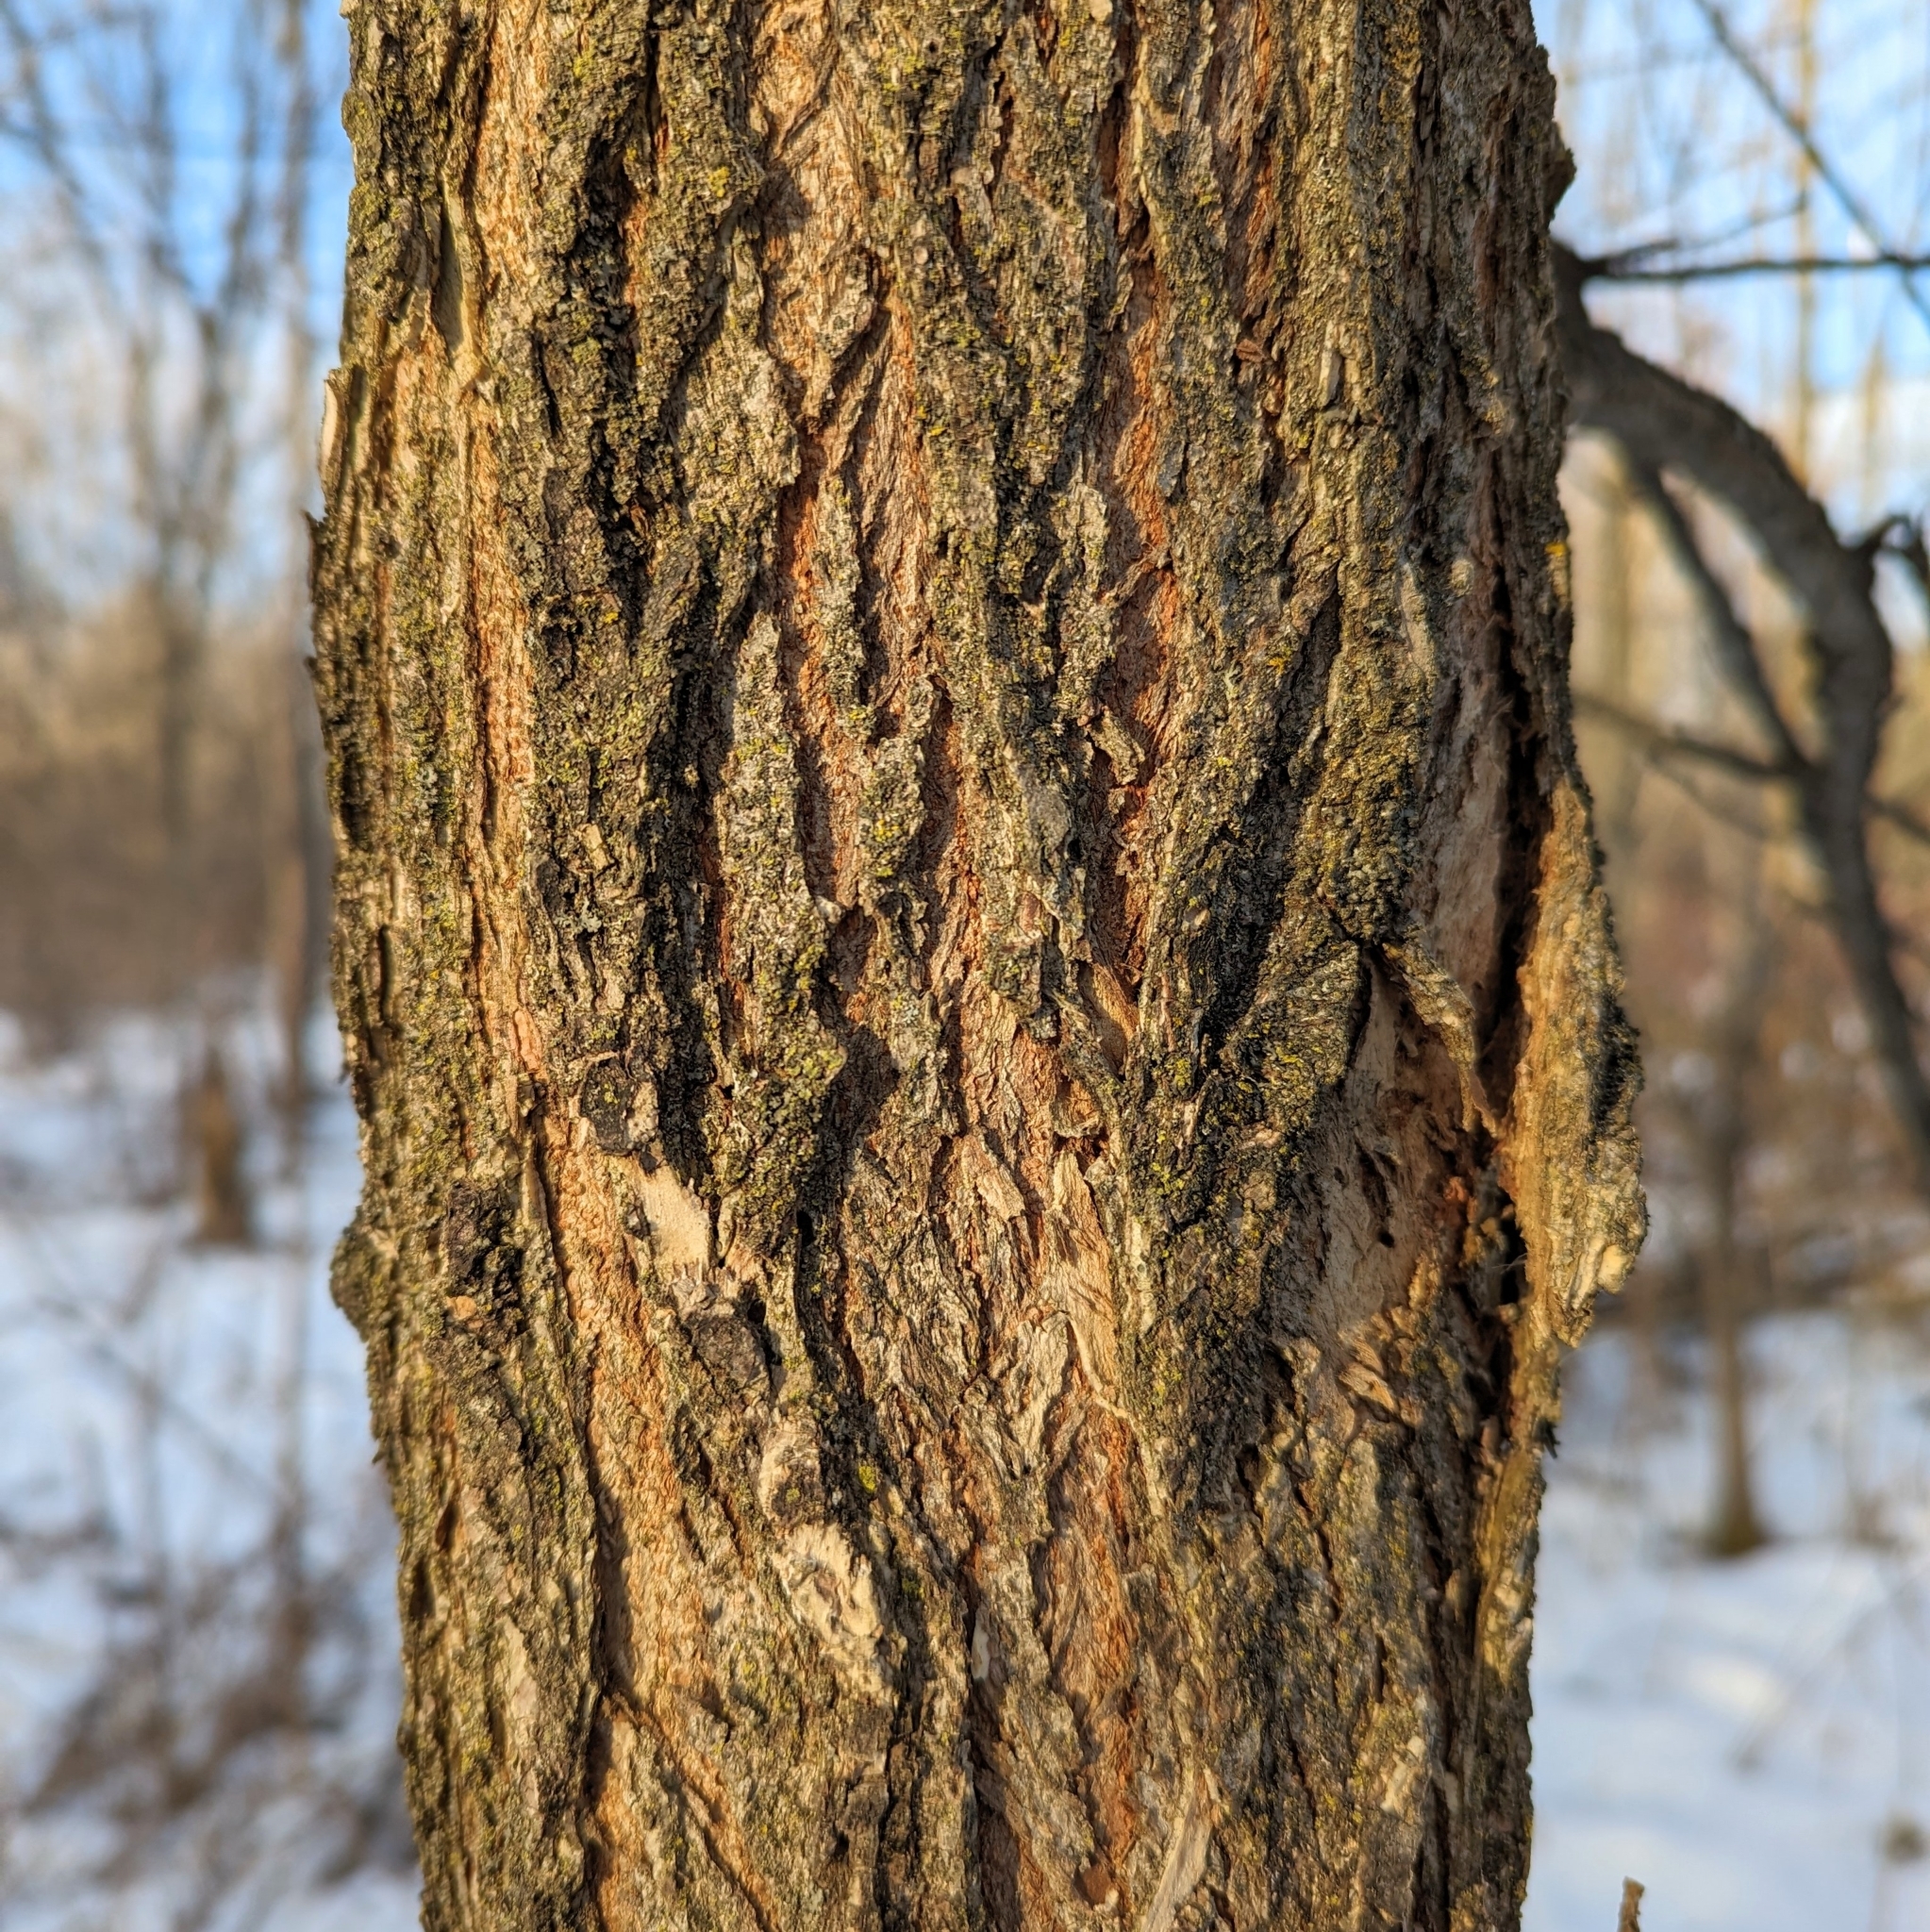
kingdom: Plantae
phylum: Tracheophyta
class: Magnoliopsida
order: Rosales
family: Ulmaceae
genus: Ulmus
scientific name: Ulmus
